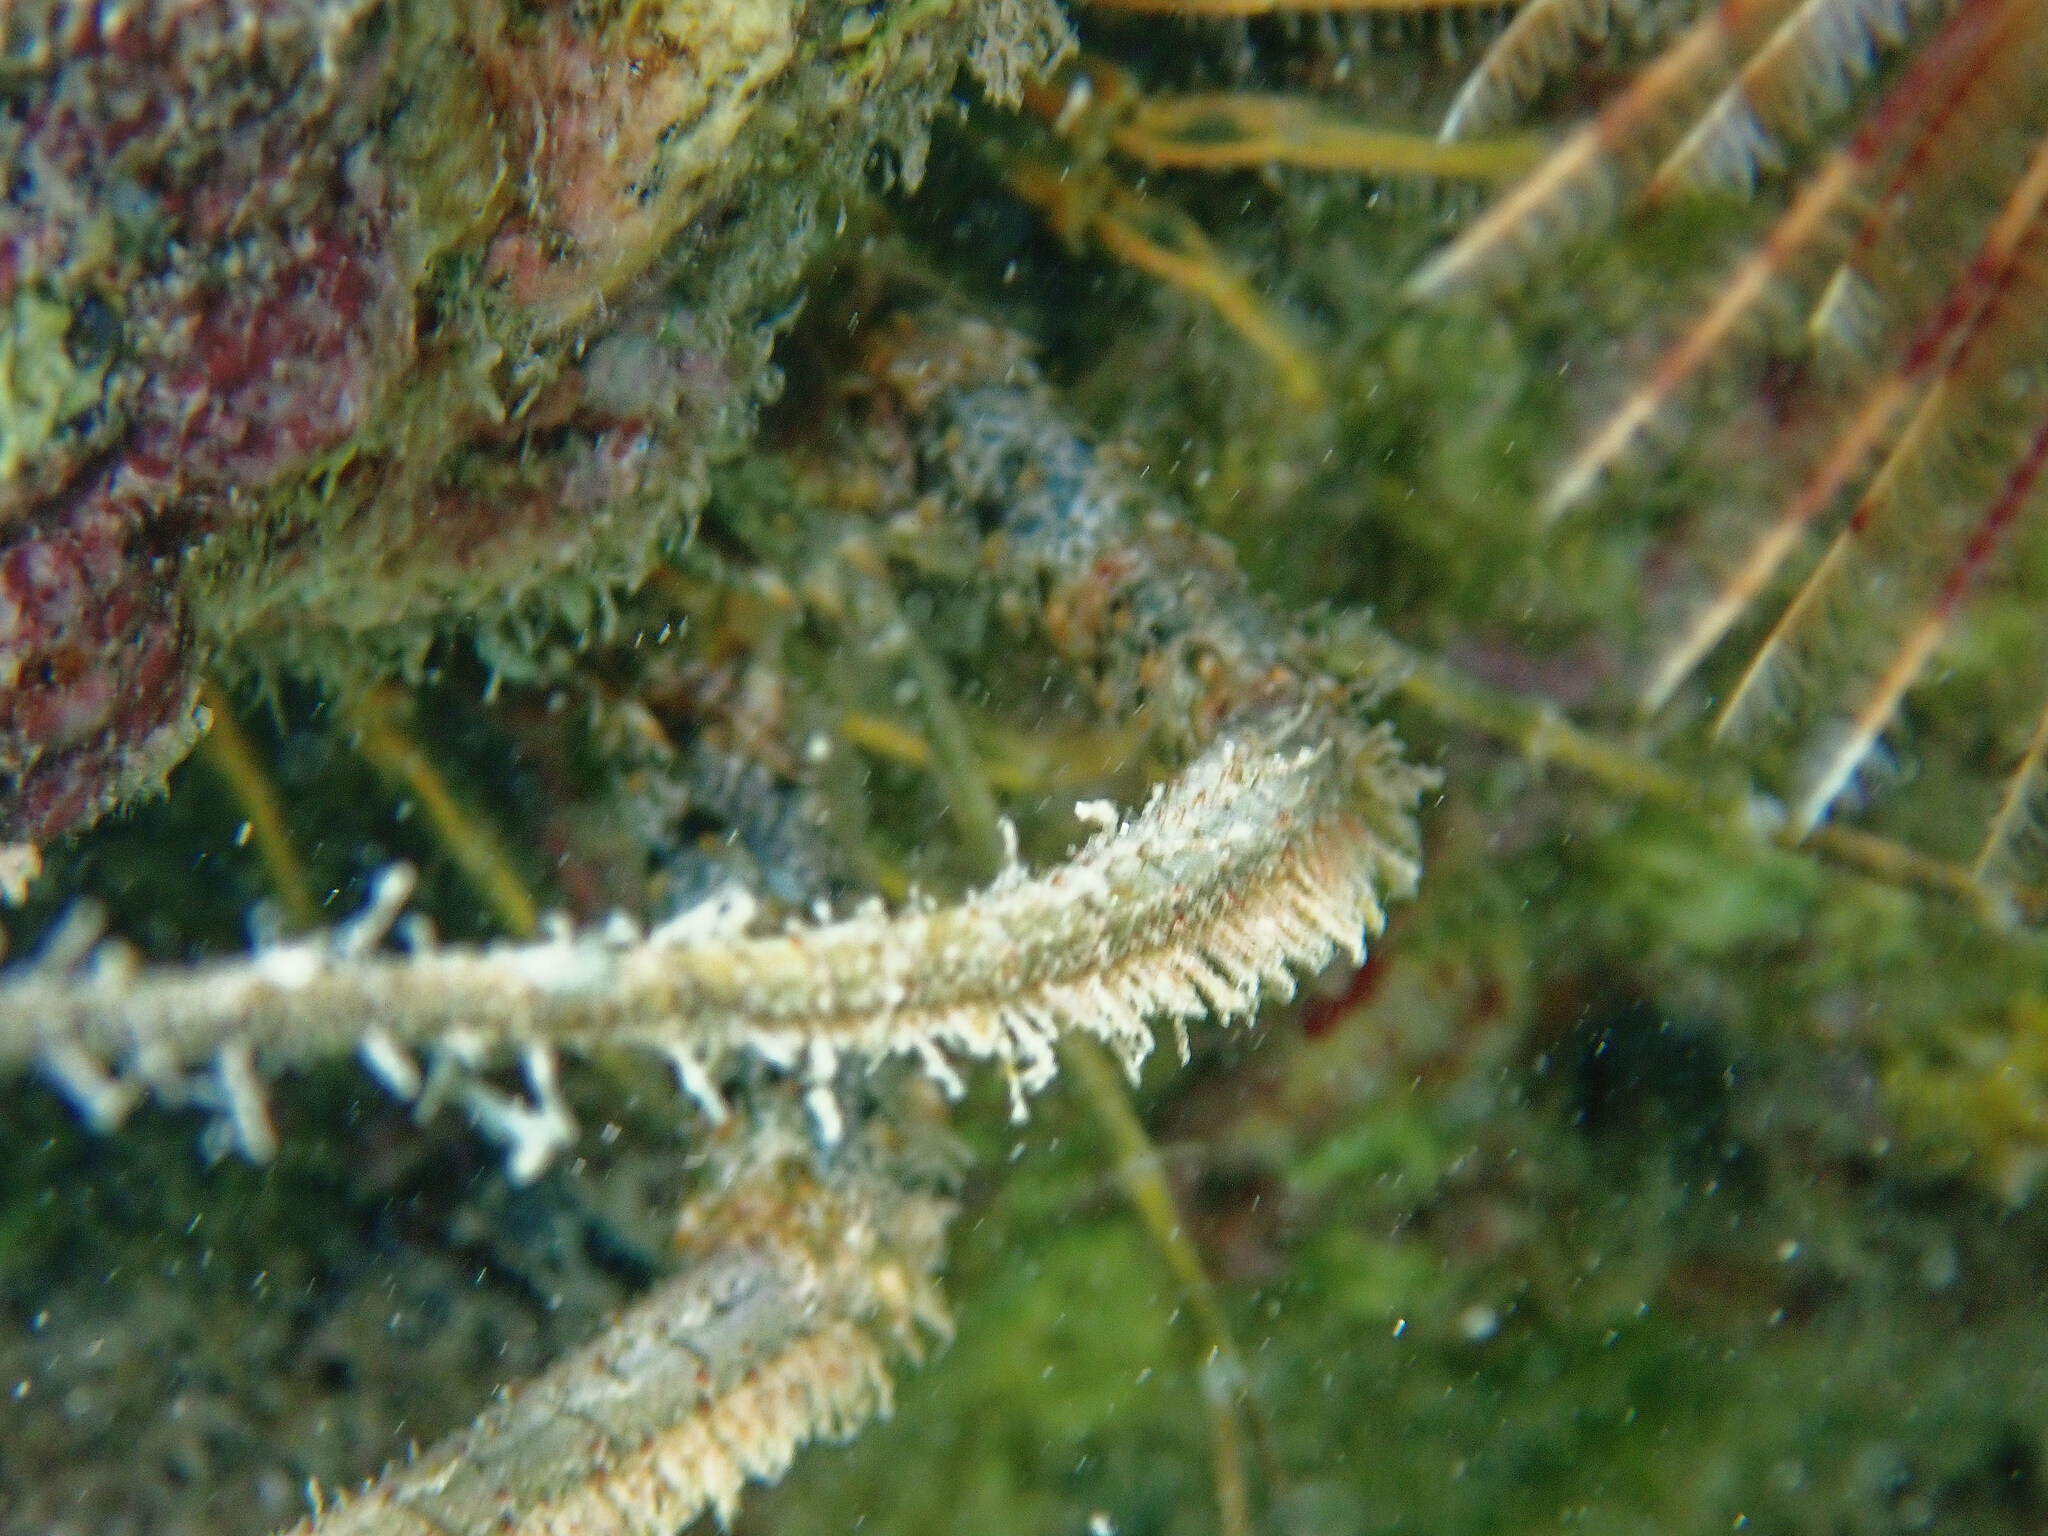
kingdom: Animalia
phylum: Arthropoda
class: Malacostraca
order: Decapoda
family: Palinuridae
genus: Panulirus
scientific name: Panulirus argus
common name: Caribbean spiny lobster
